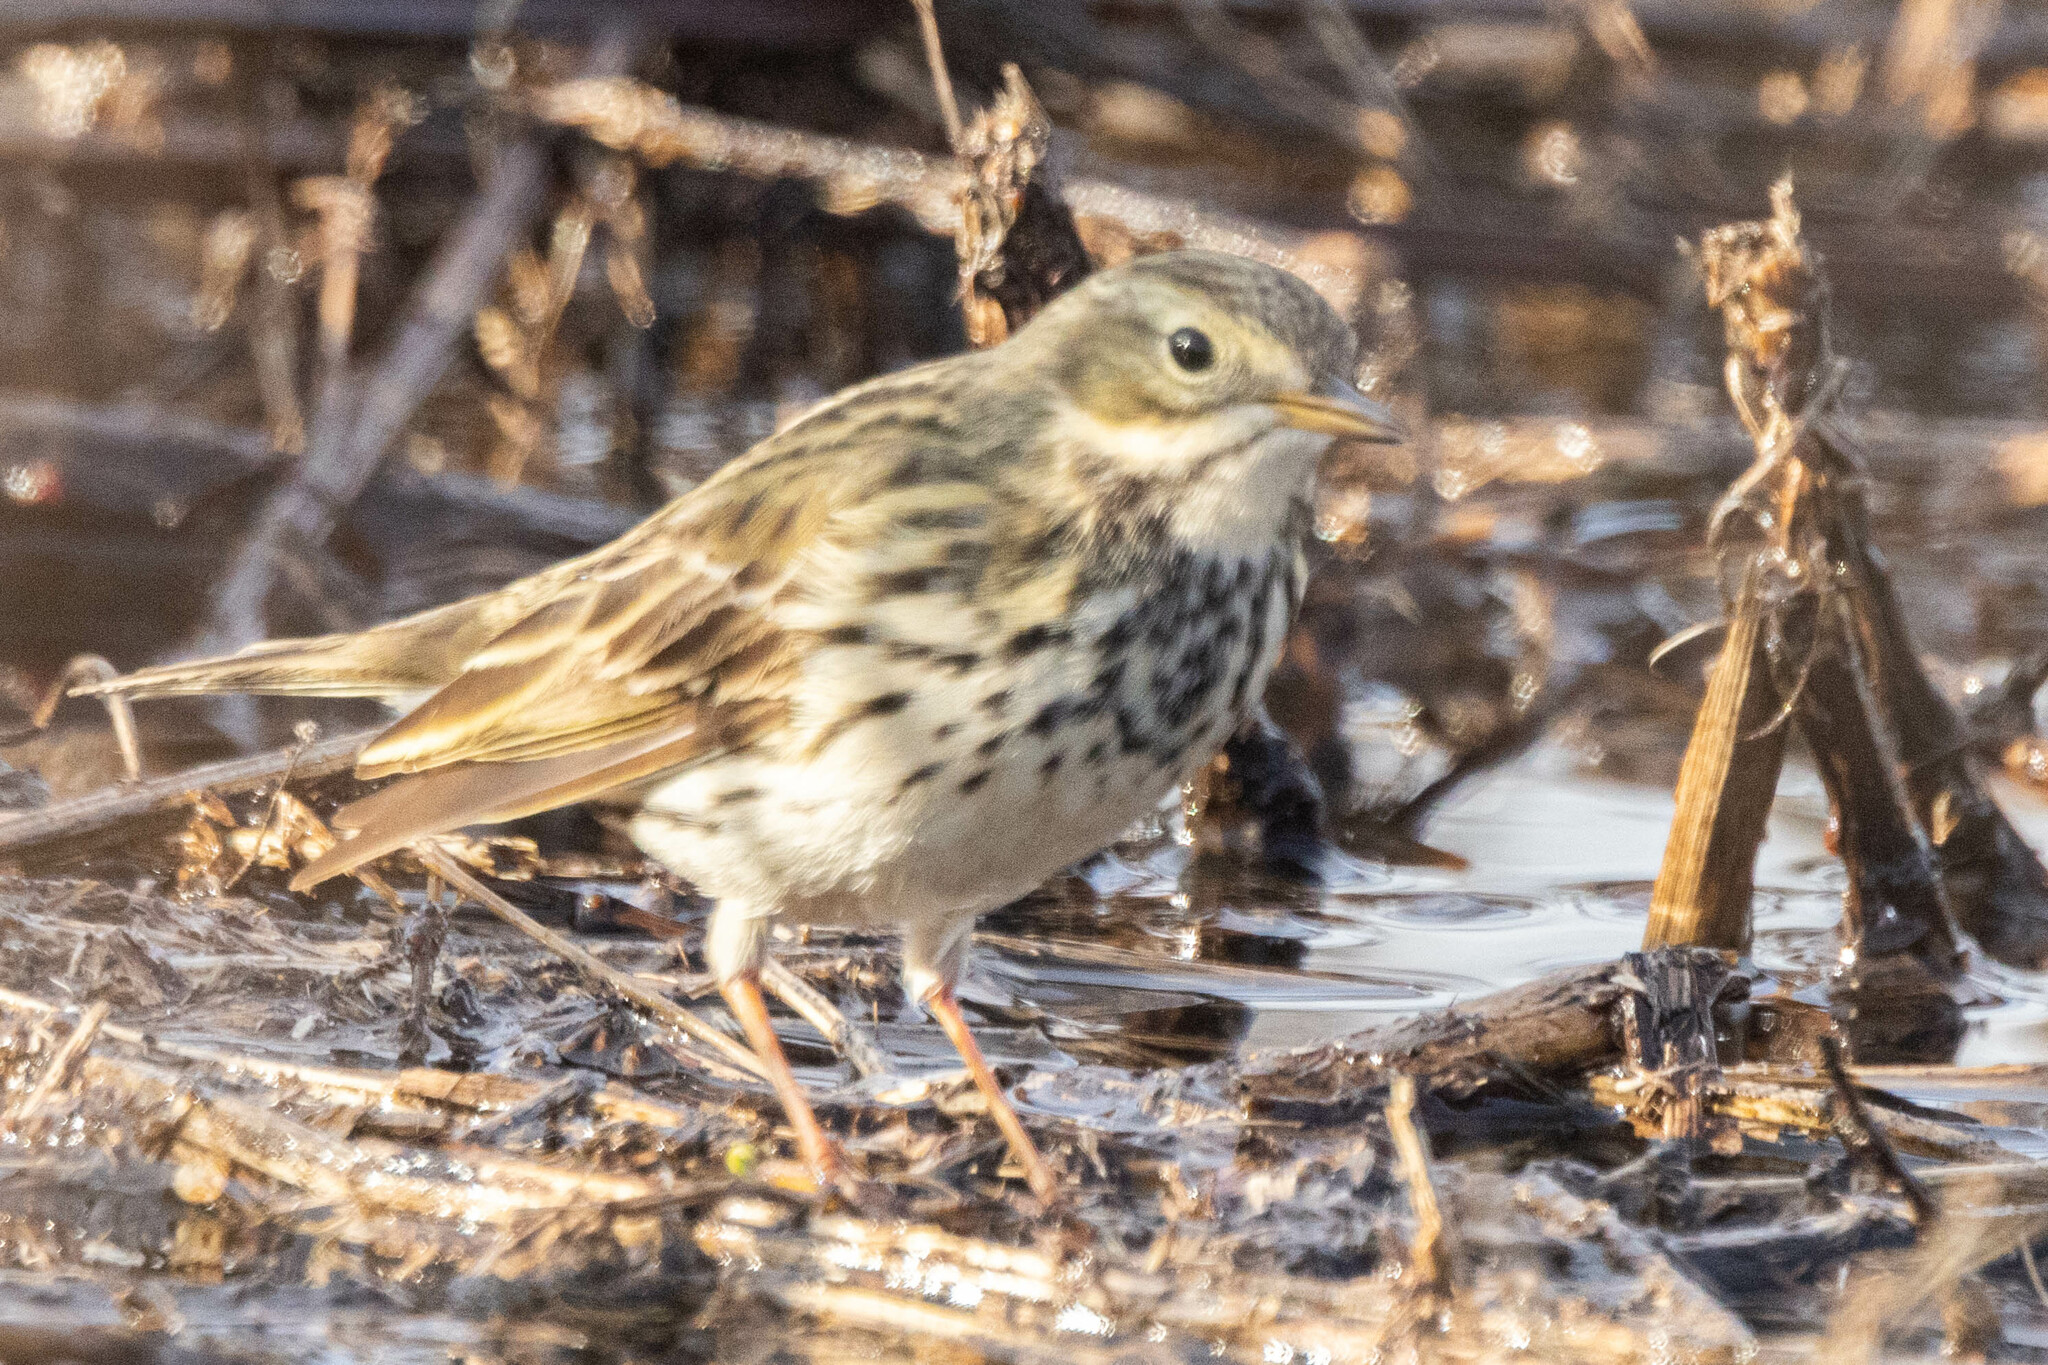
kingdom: Animalia
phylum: Chordata
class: Aves
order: Passeriformes
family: Motacillidae
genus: Anthus
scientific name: Anthus pratensis
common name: Meadow pipit
